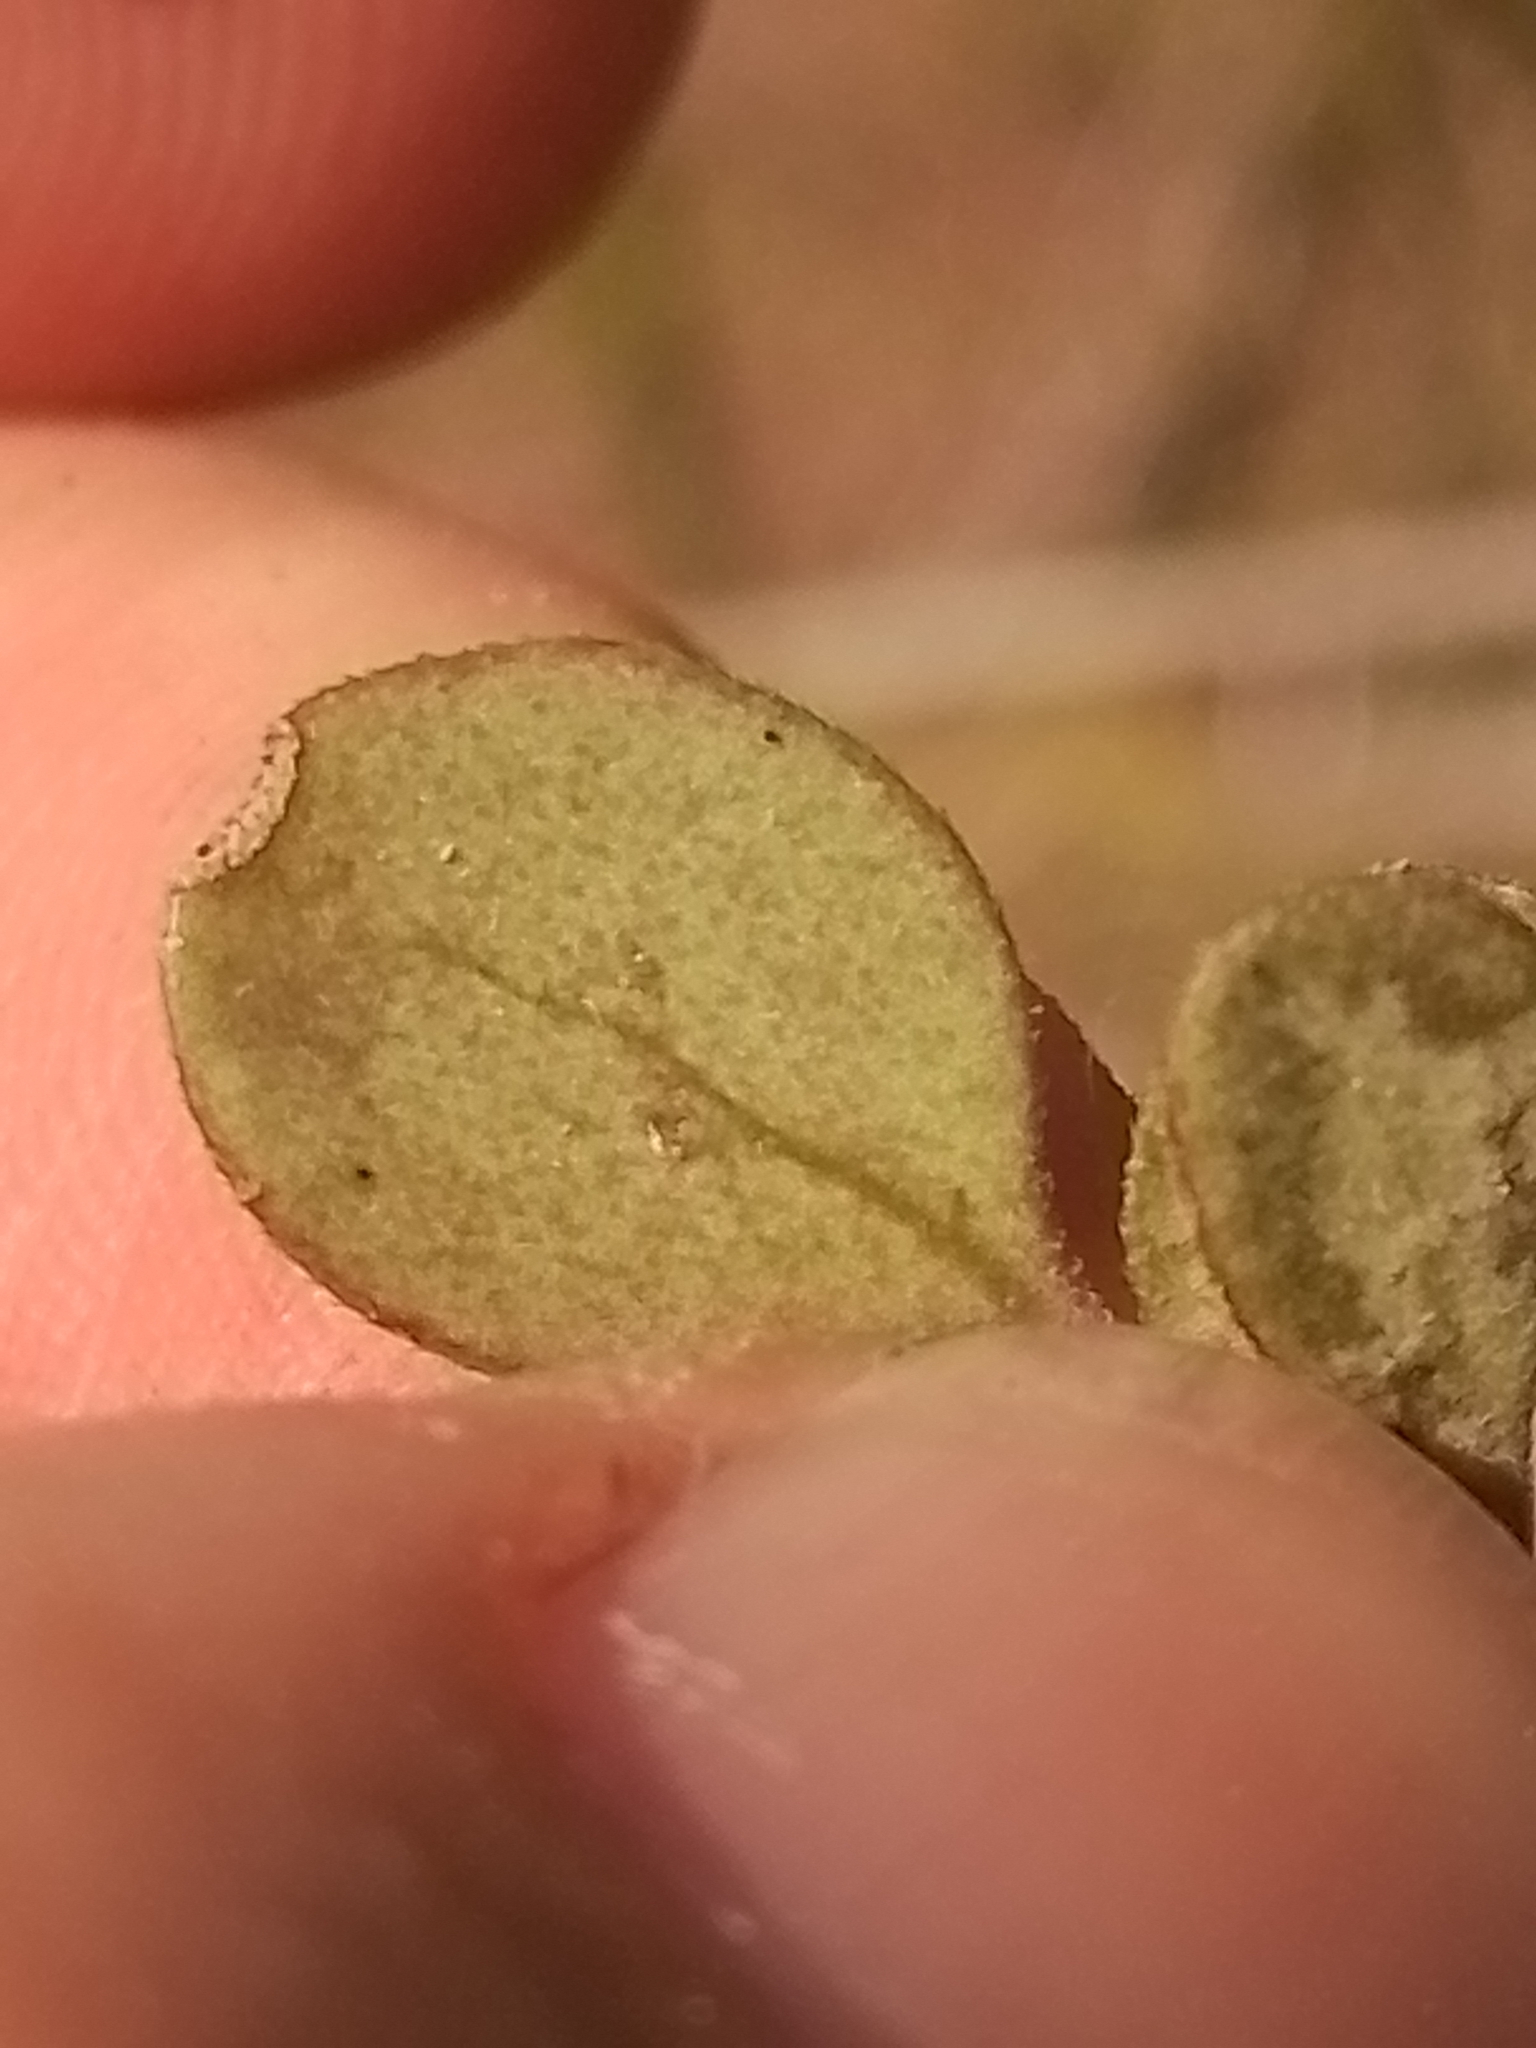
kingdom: Plantae
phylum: Tracheophyta
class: Magnoliopsida
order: Gentianales
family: Rubiaceae
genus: Coprosma
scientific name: Coprosma crassifolia
